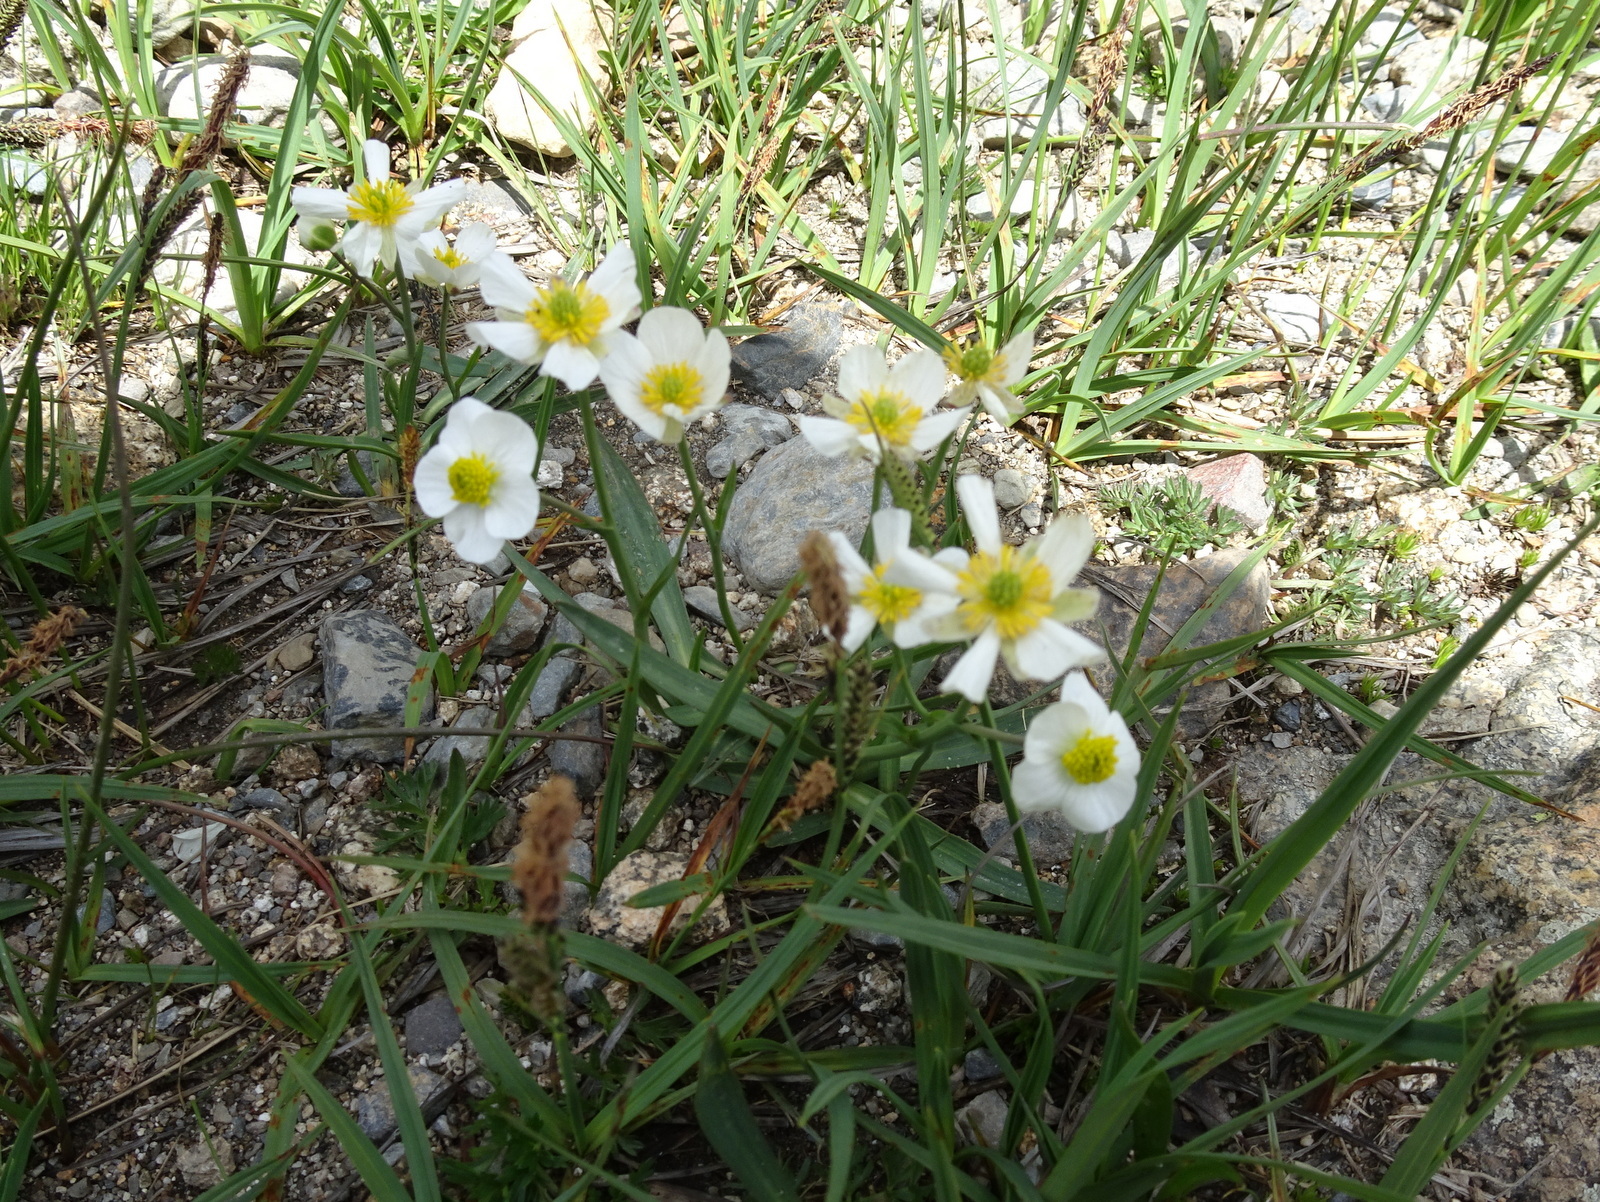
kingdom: Plantae
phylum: Tracheophyta
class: Magnoliopsida
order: Ranunculales
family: Ranunculaceae
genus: Ranunculus
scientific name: Ranunculus pyrenaeus
